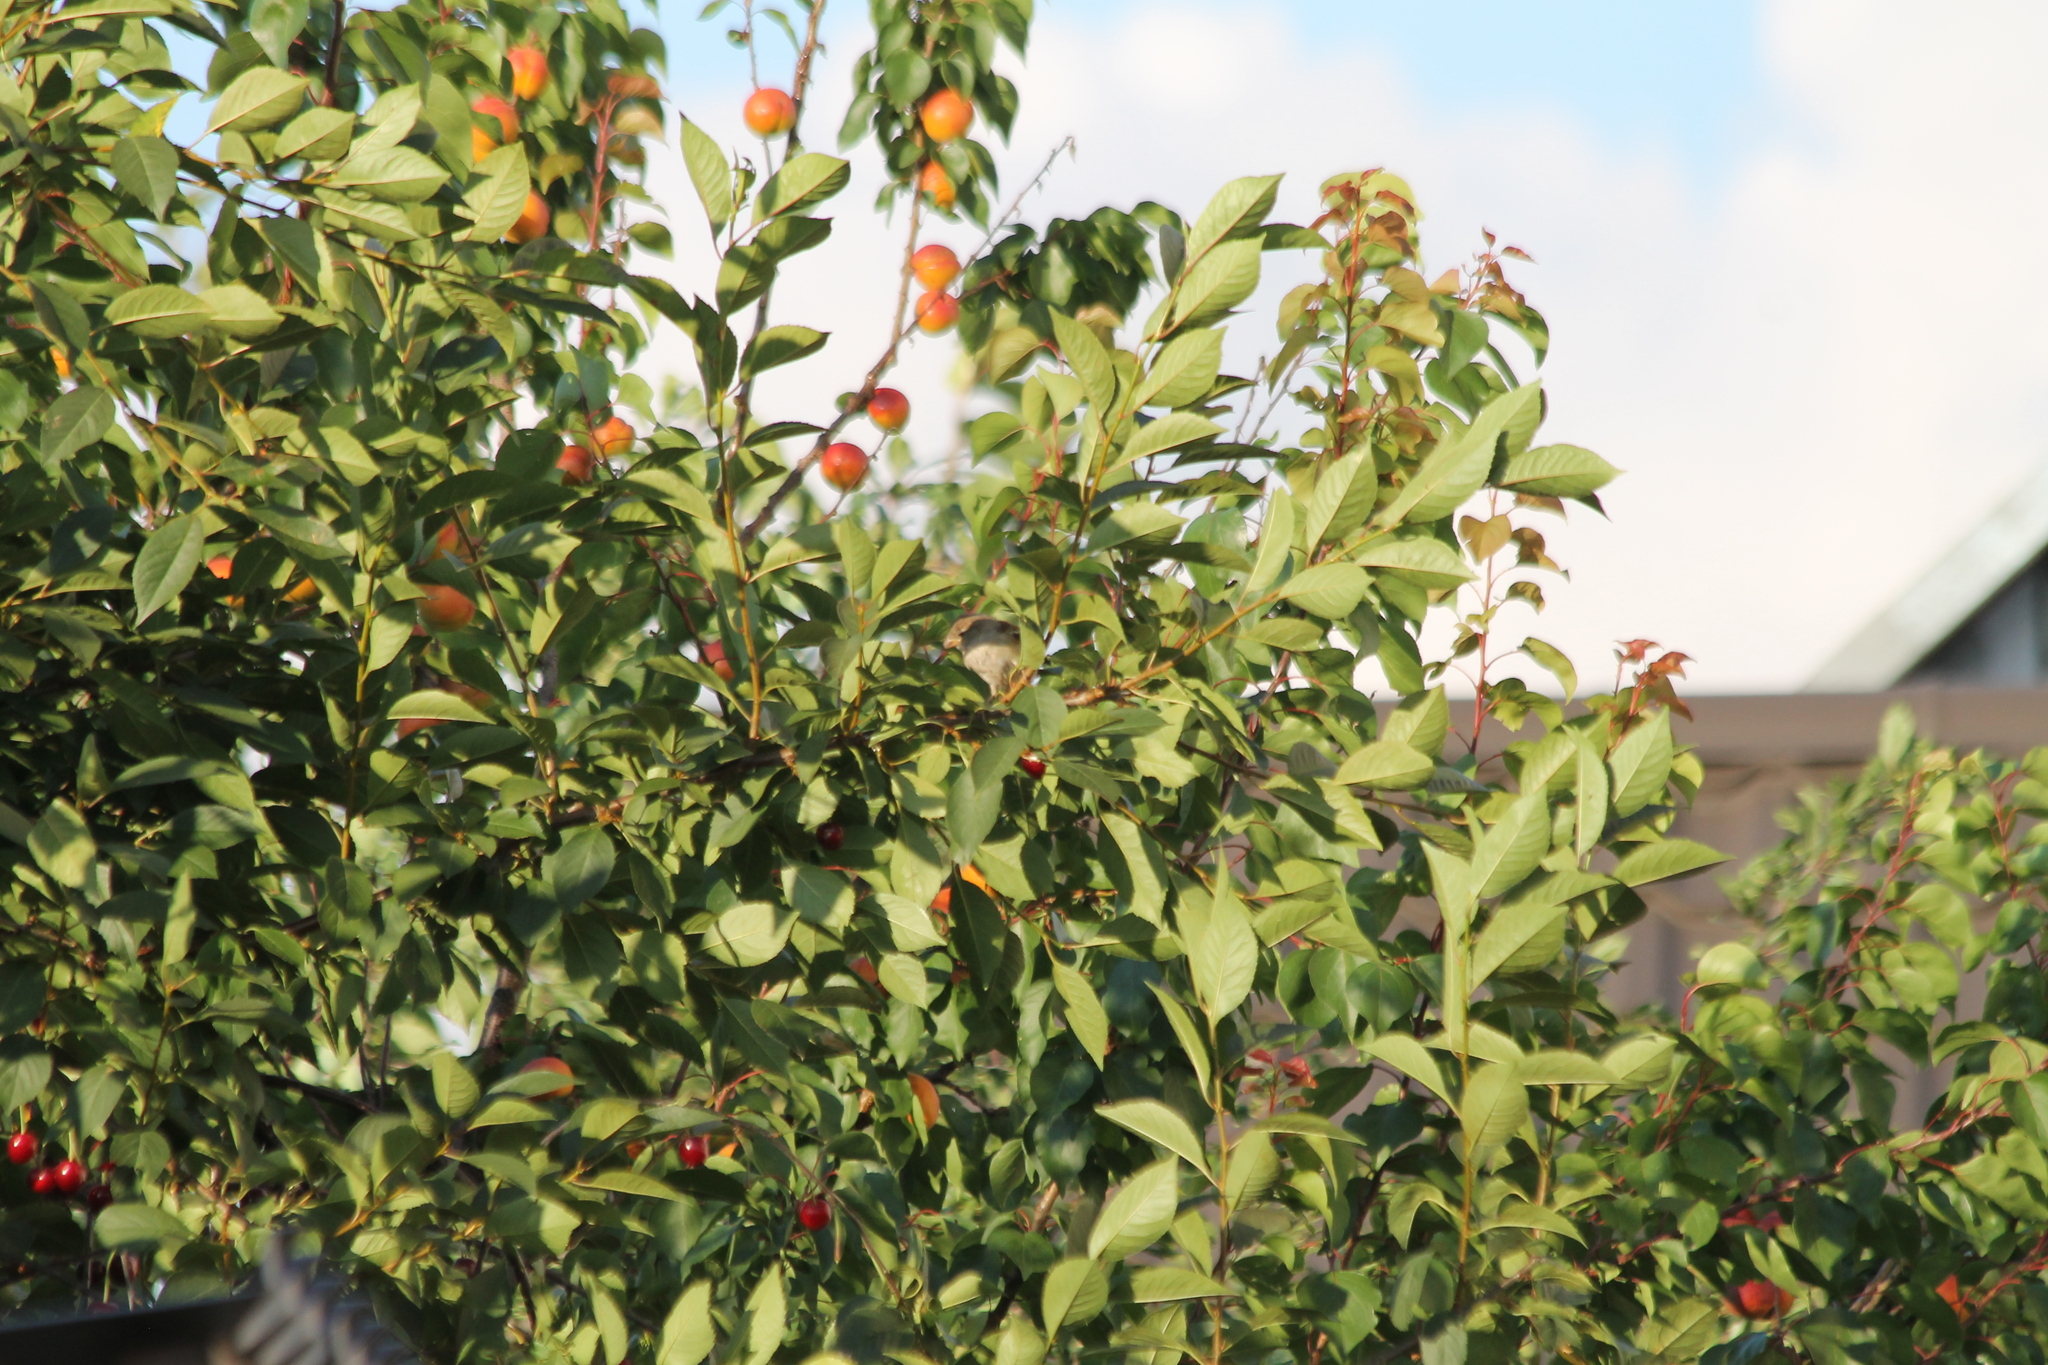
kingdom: Animalia
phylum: Chordata
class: Aves
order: Passeriformes
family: Passeridae
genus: Passer
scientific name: Passer domesticus
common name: House sparrow
